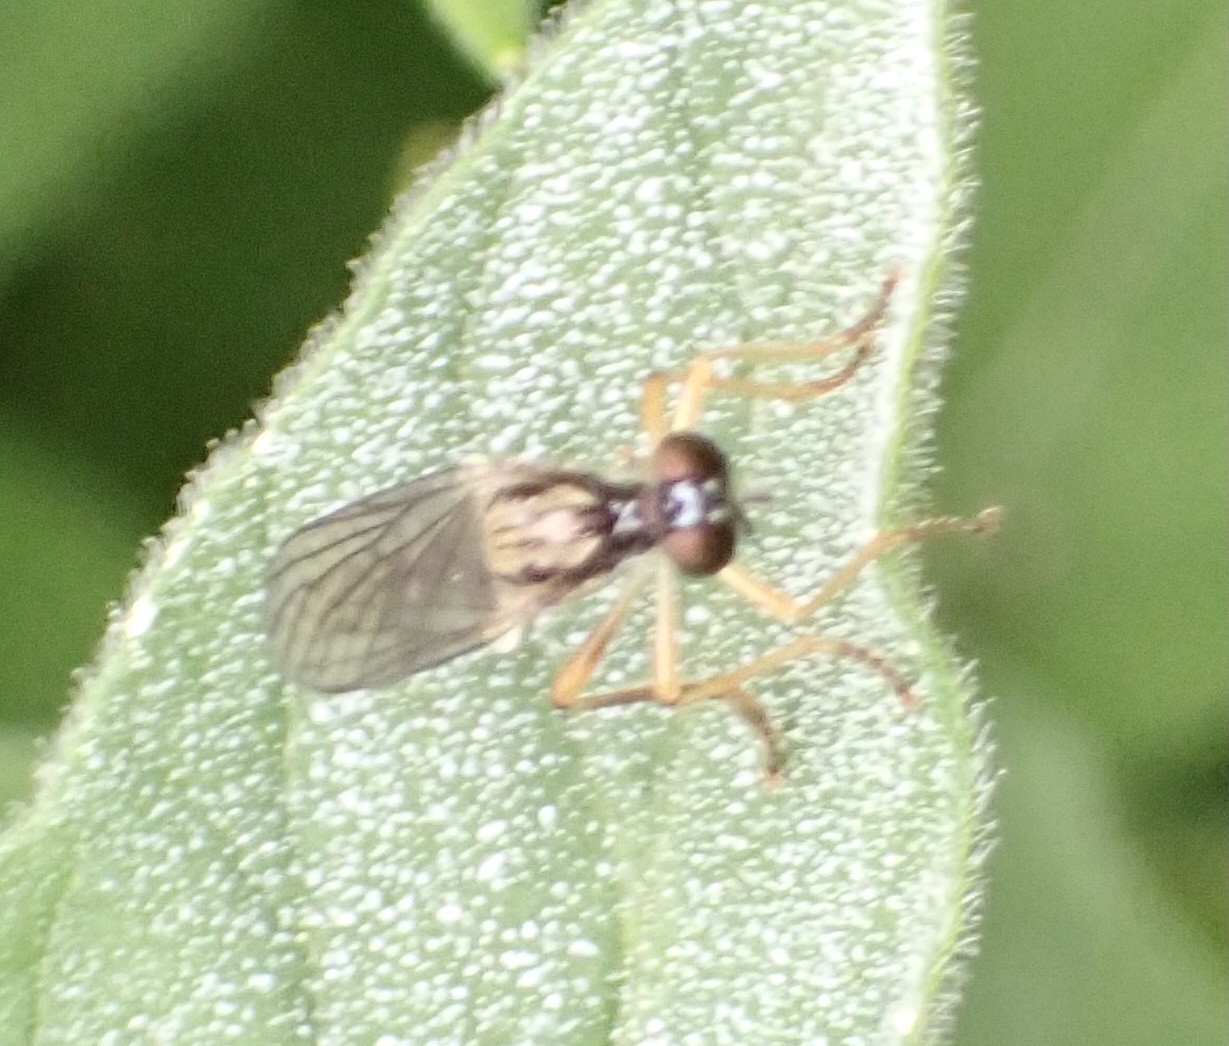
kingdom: Animalia
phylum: Arthropoda
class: Insecta
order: Diptera
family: Asilidae
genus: Dioctria
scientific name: Dioctria linearis
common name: Small yellow-legged robberfly
